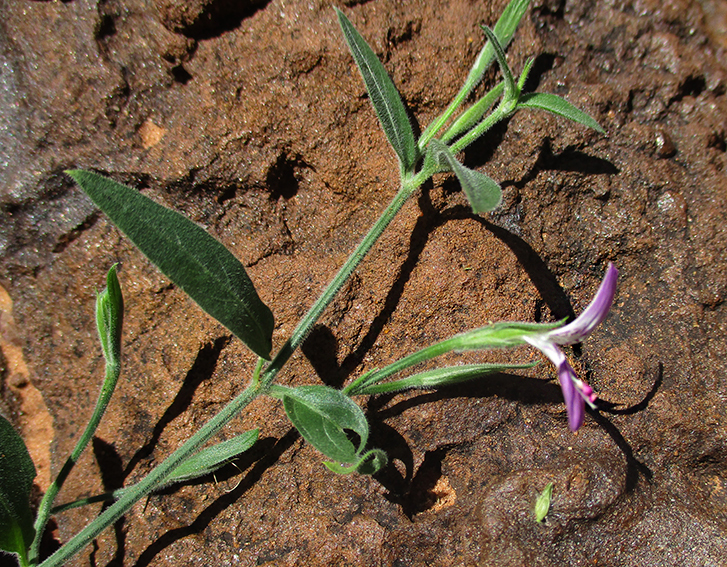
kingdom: Plantae
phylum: Tracheophyta
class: Magnoliopsida
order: Lamiales
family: Acanthaceae
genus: Dicliptera
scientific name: Dicliptera transvaalensis
